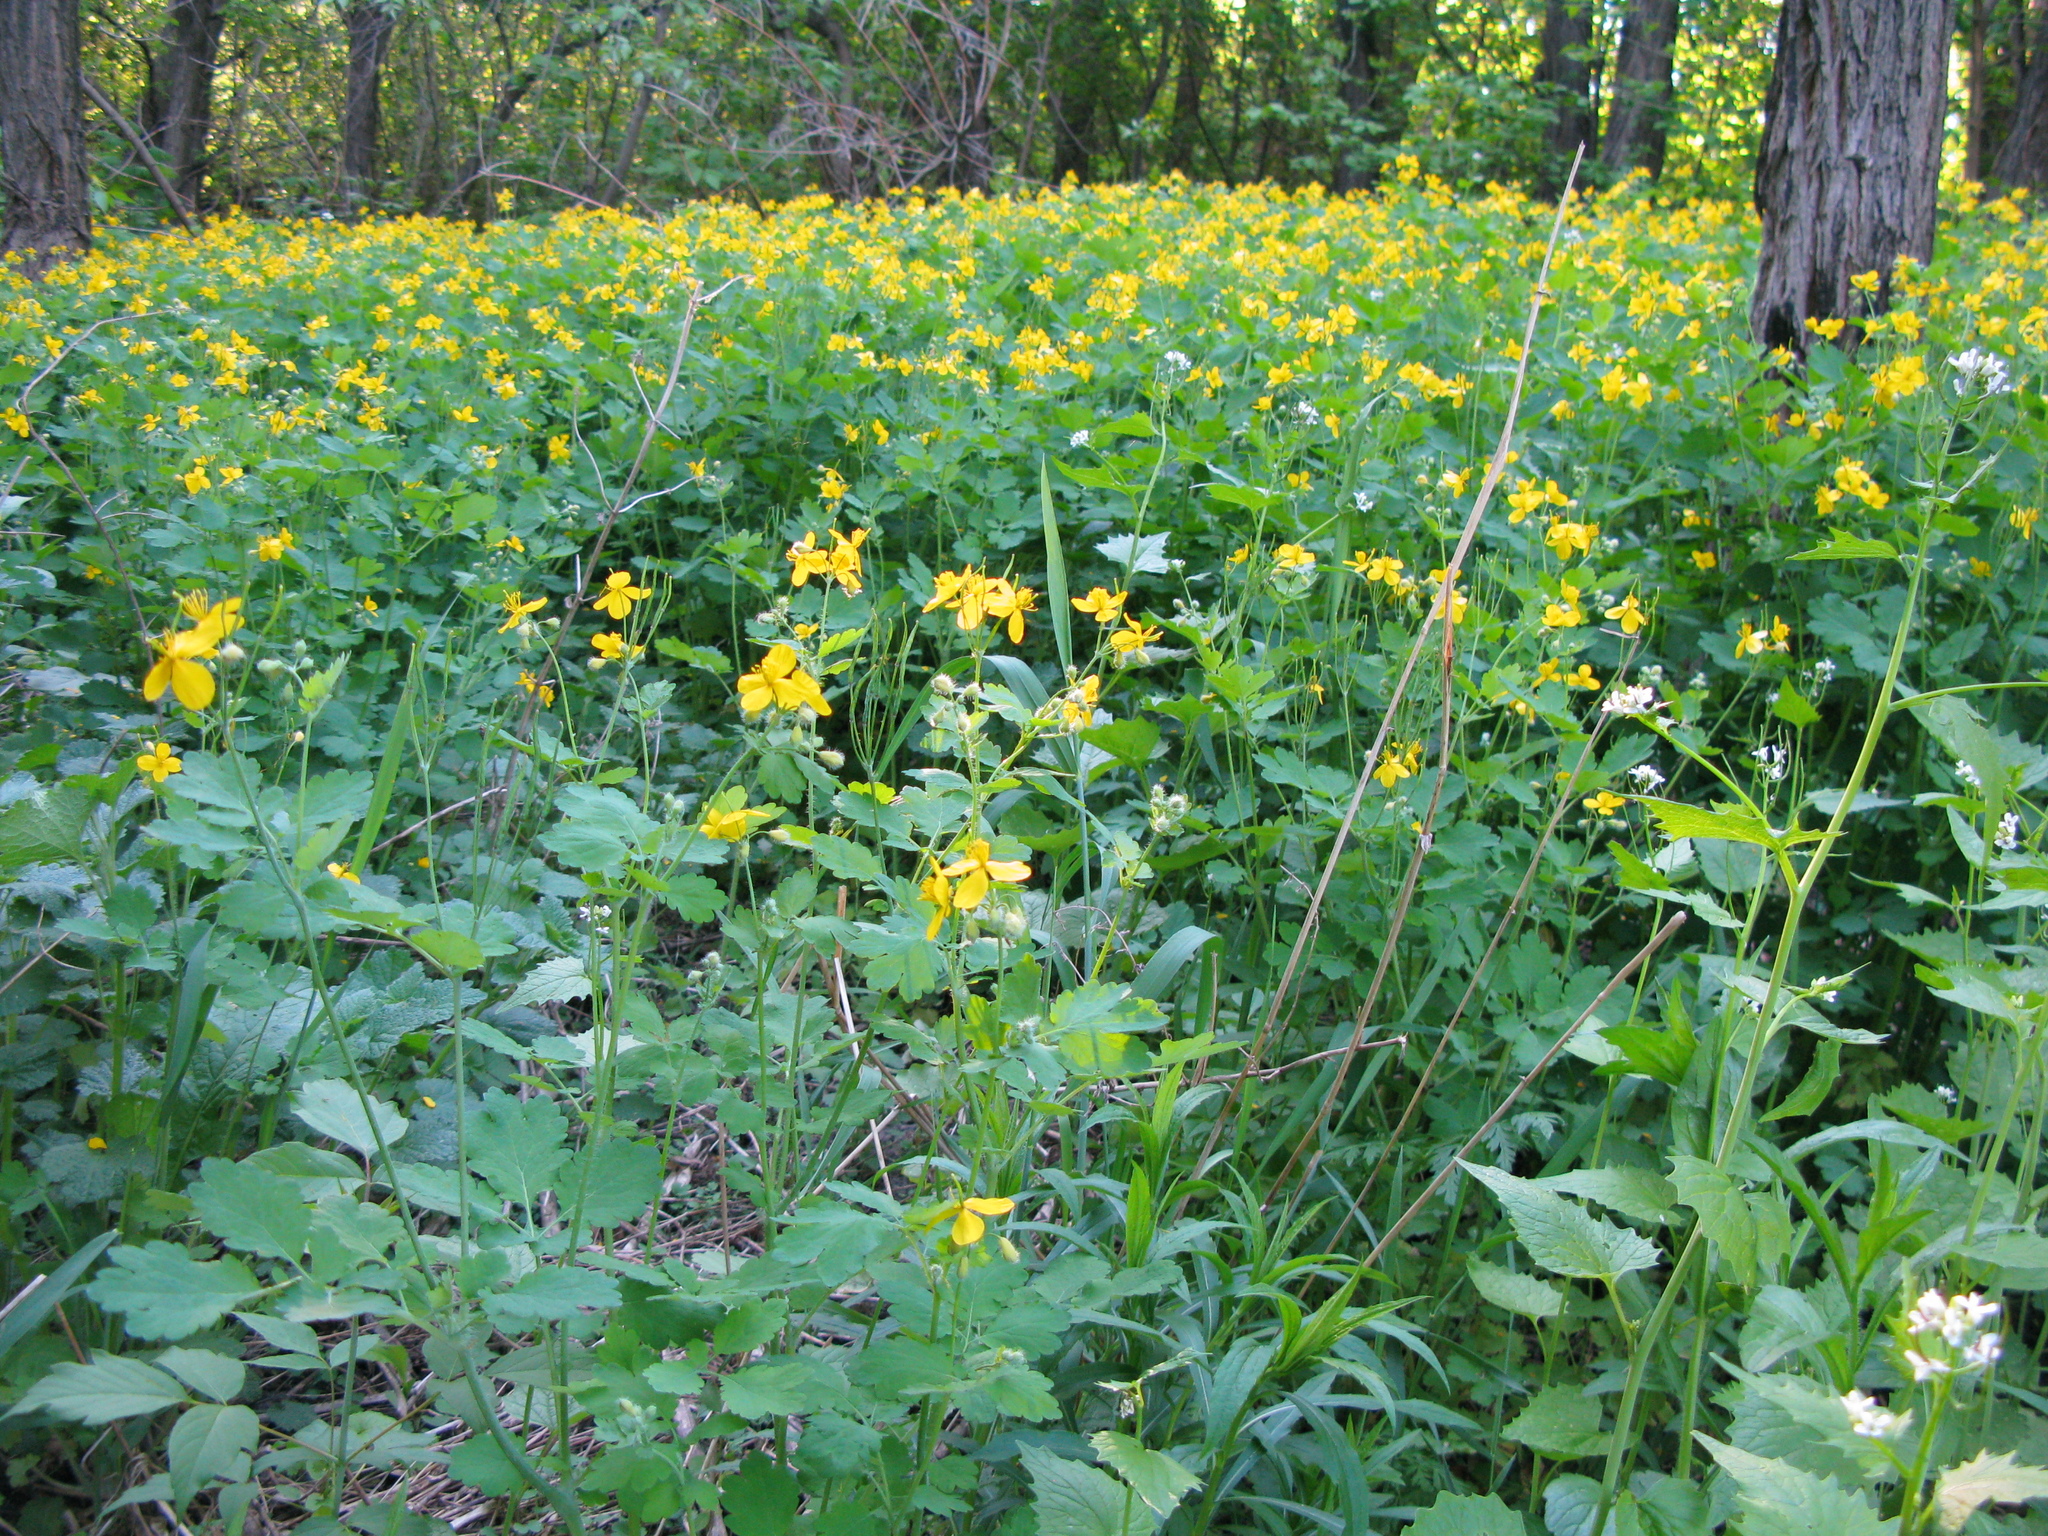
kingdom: Plantae
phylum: Tracheophyta
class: Magnoliopsida
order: Ranunculales
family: Papaveraceae
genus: Chelidonium
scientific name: Chelidonium majus
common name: Greater celandine
